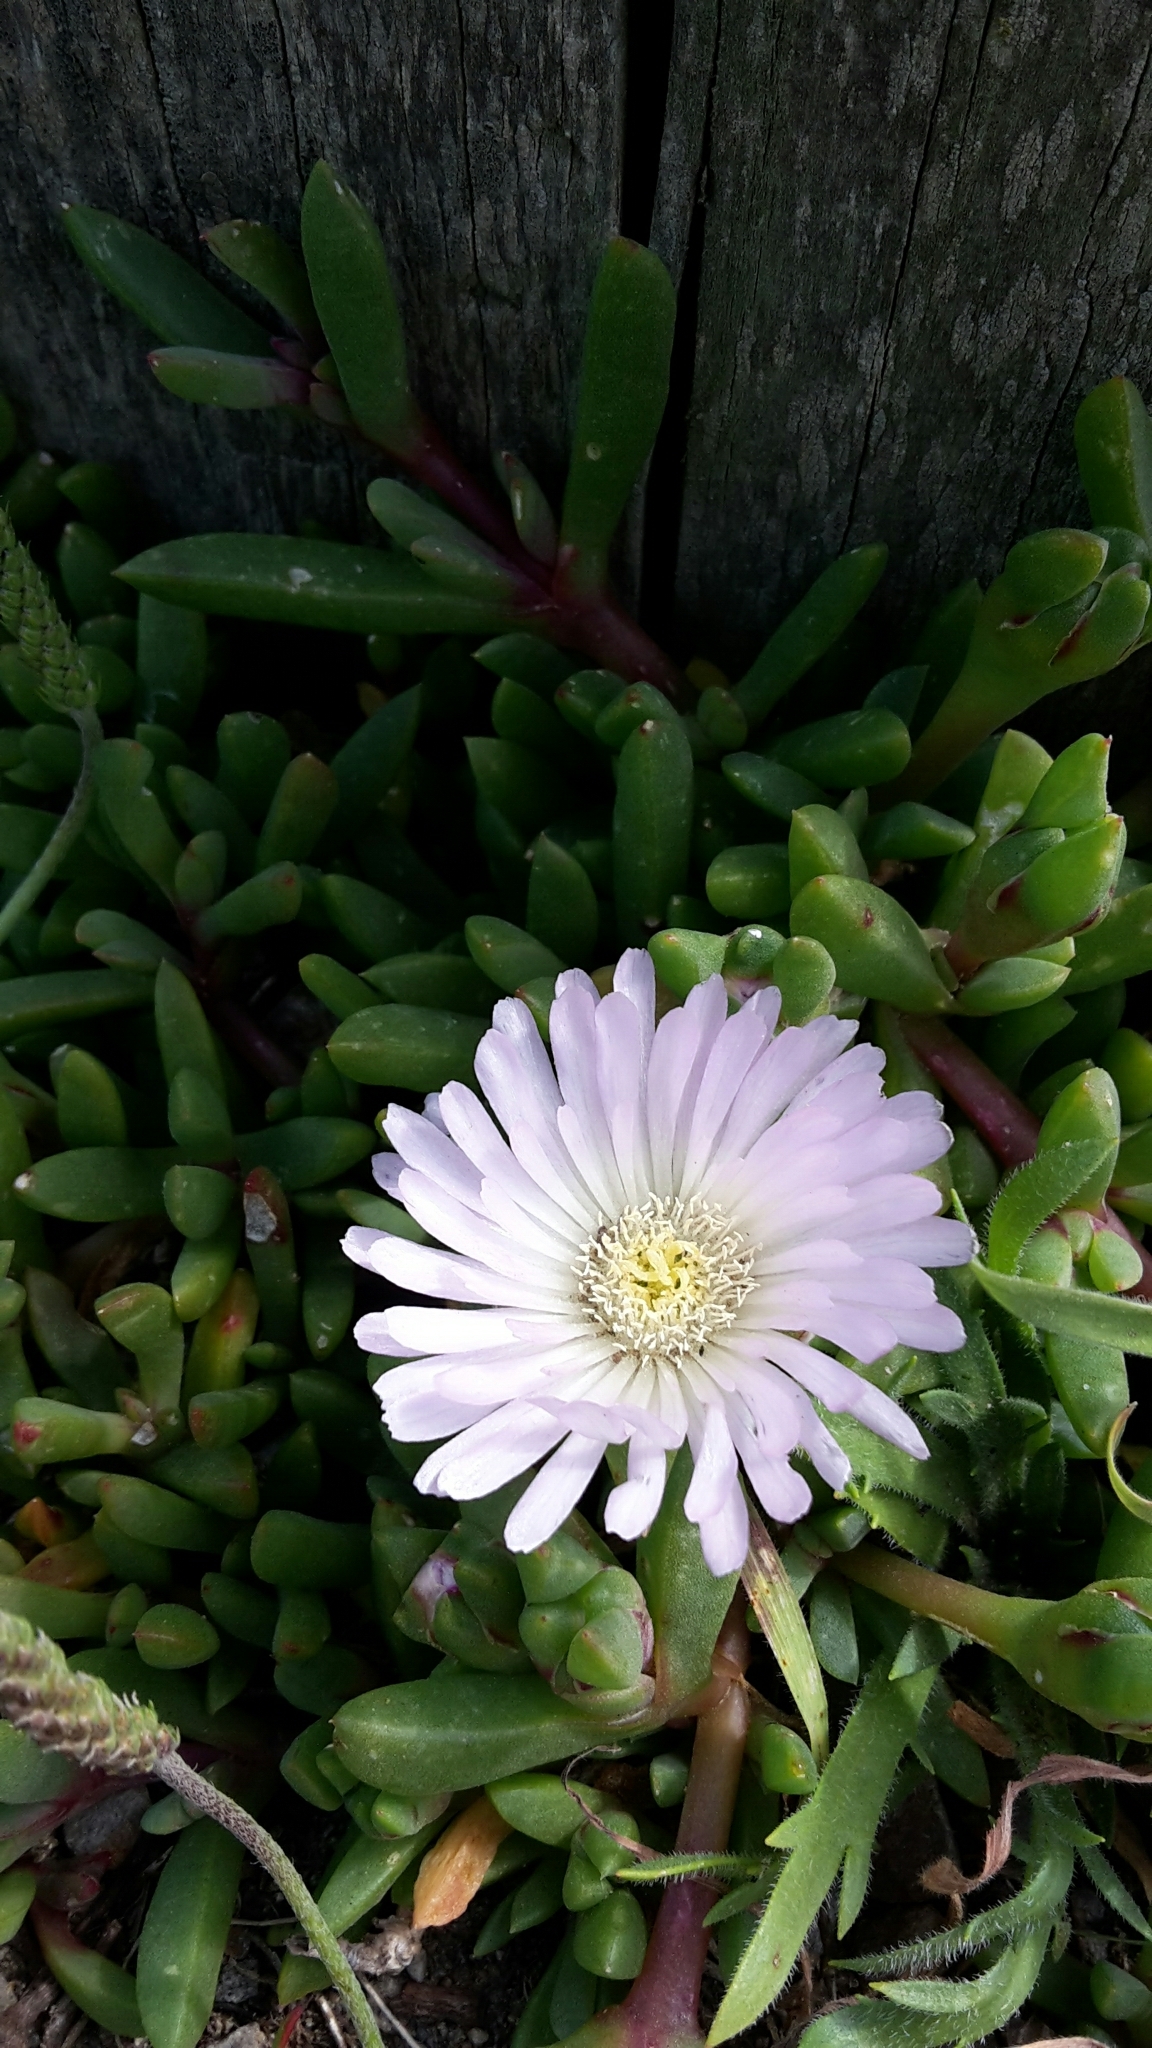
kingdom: Plantae
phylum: Tracheophyta
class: Magnoliopsida
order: Caryophyllales
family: Aizoaceae
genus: Disphyma
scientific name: Disphyma australe
